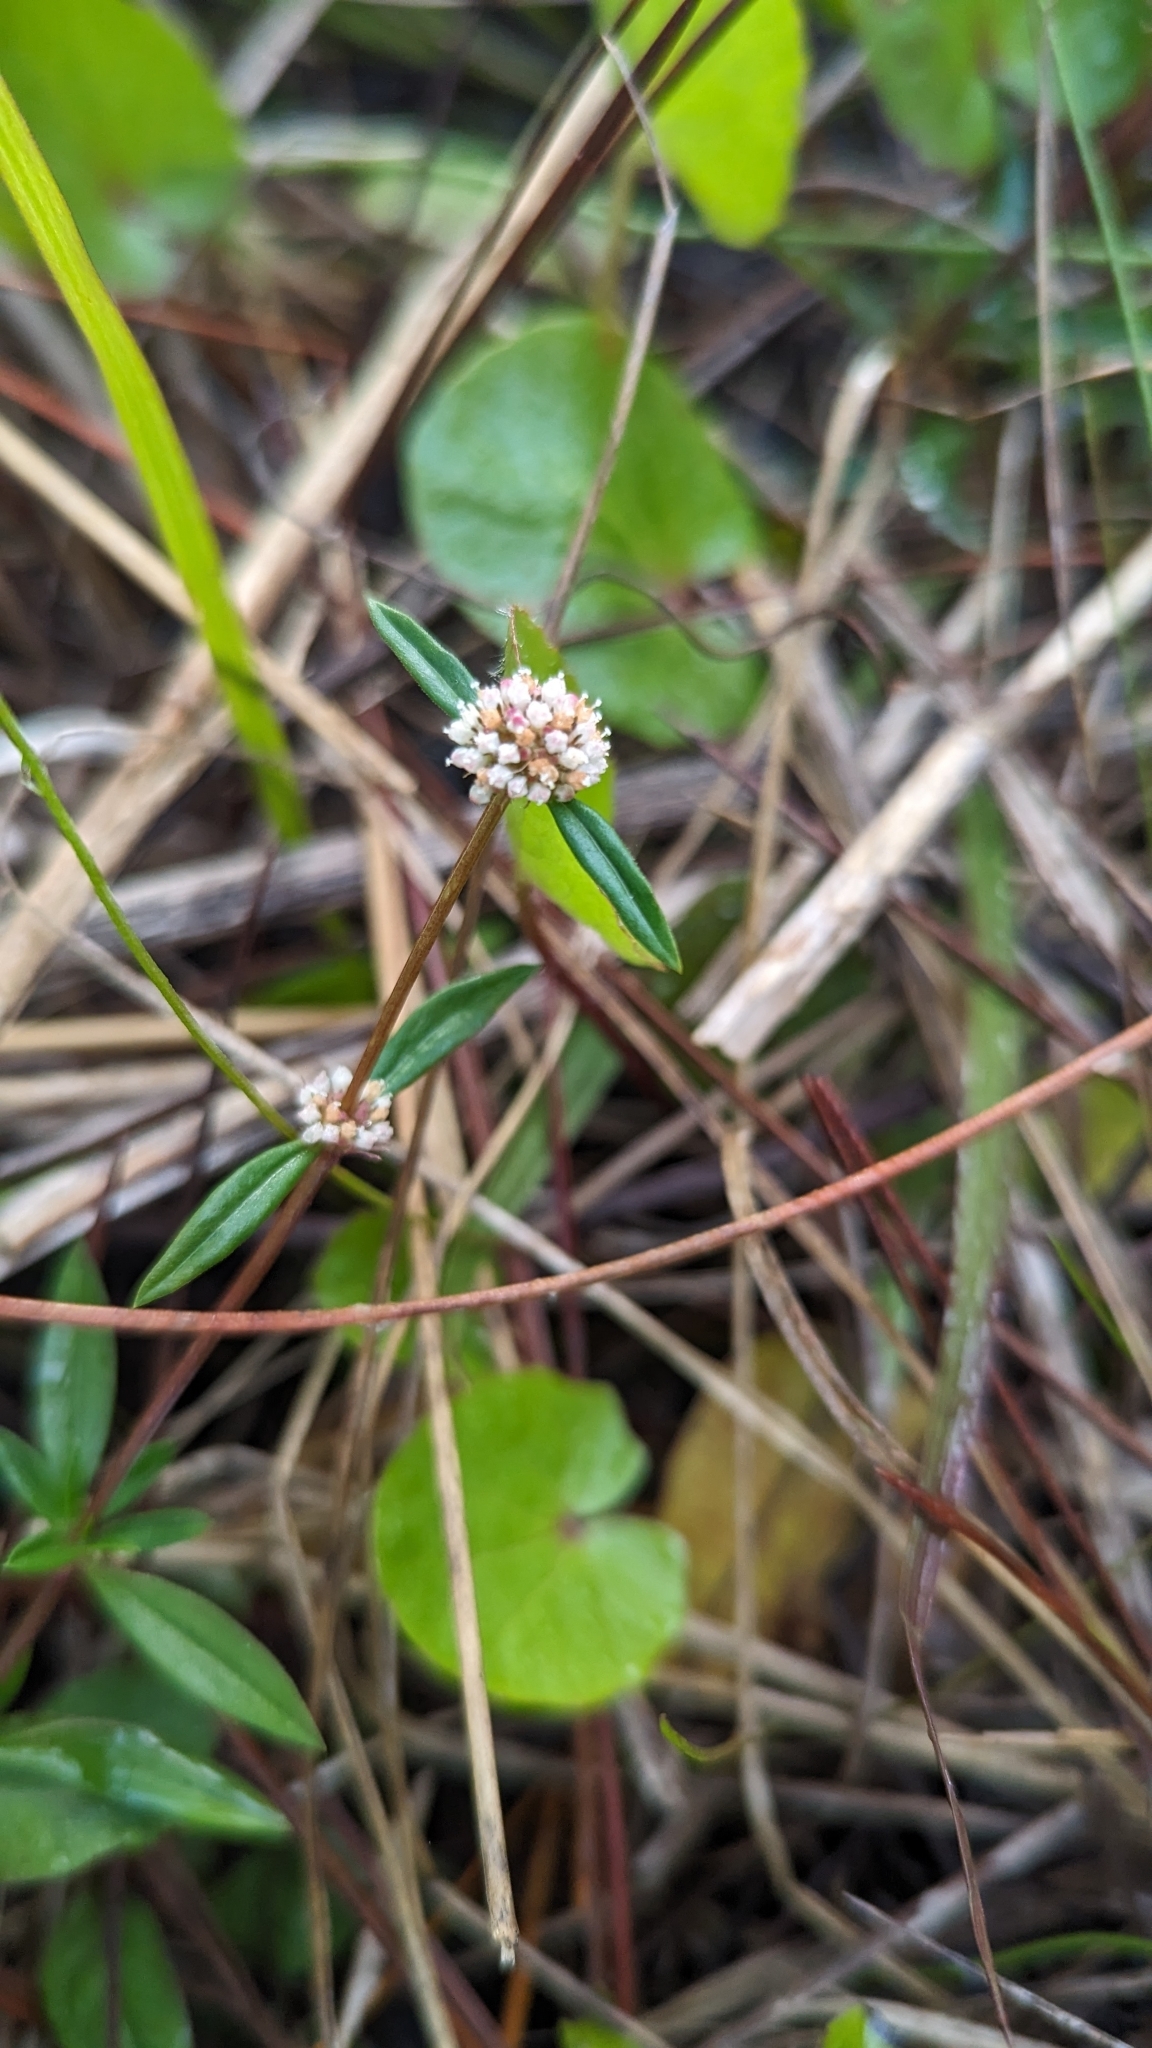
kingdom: Plantae
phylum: Tracheophyta
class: Magnoliopsida
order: Gentianales
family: Rubiaceae
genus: Spermacoce
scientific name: Spermacoce verticillata
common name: Shrubby false buttonweed
